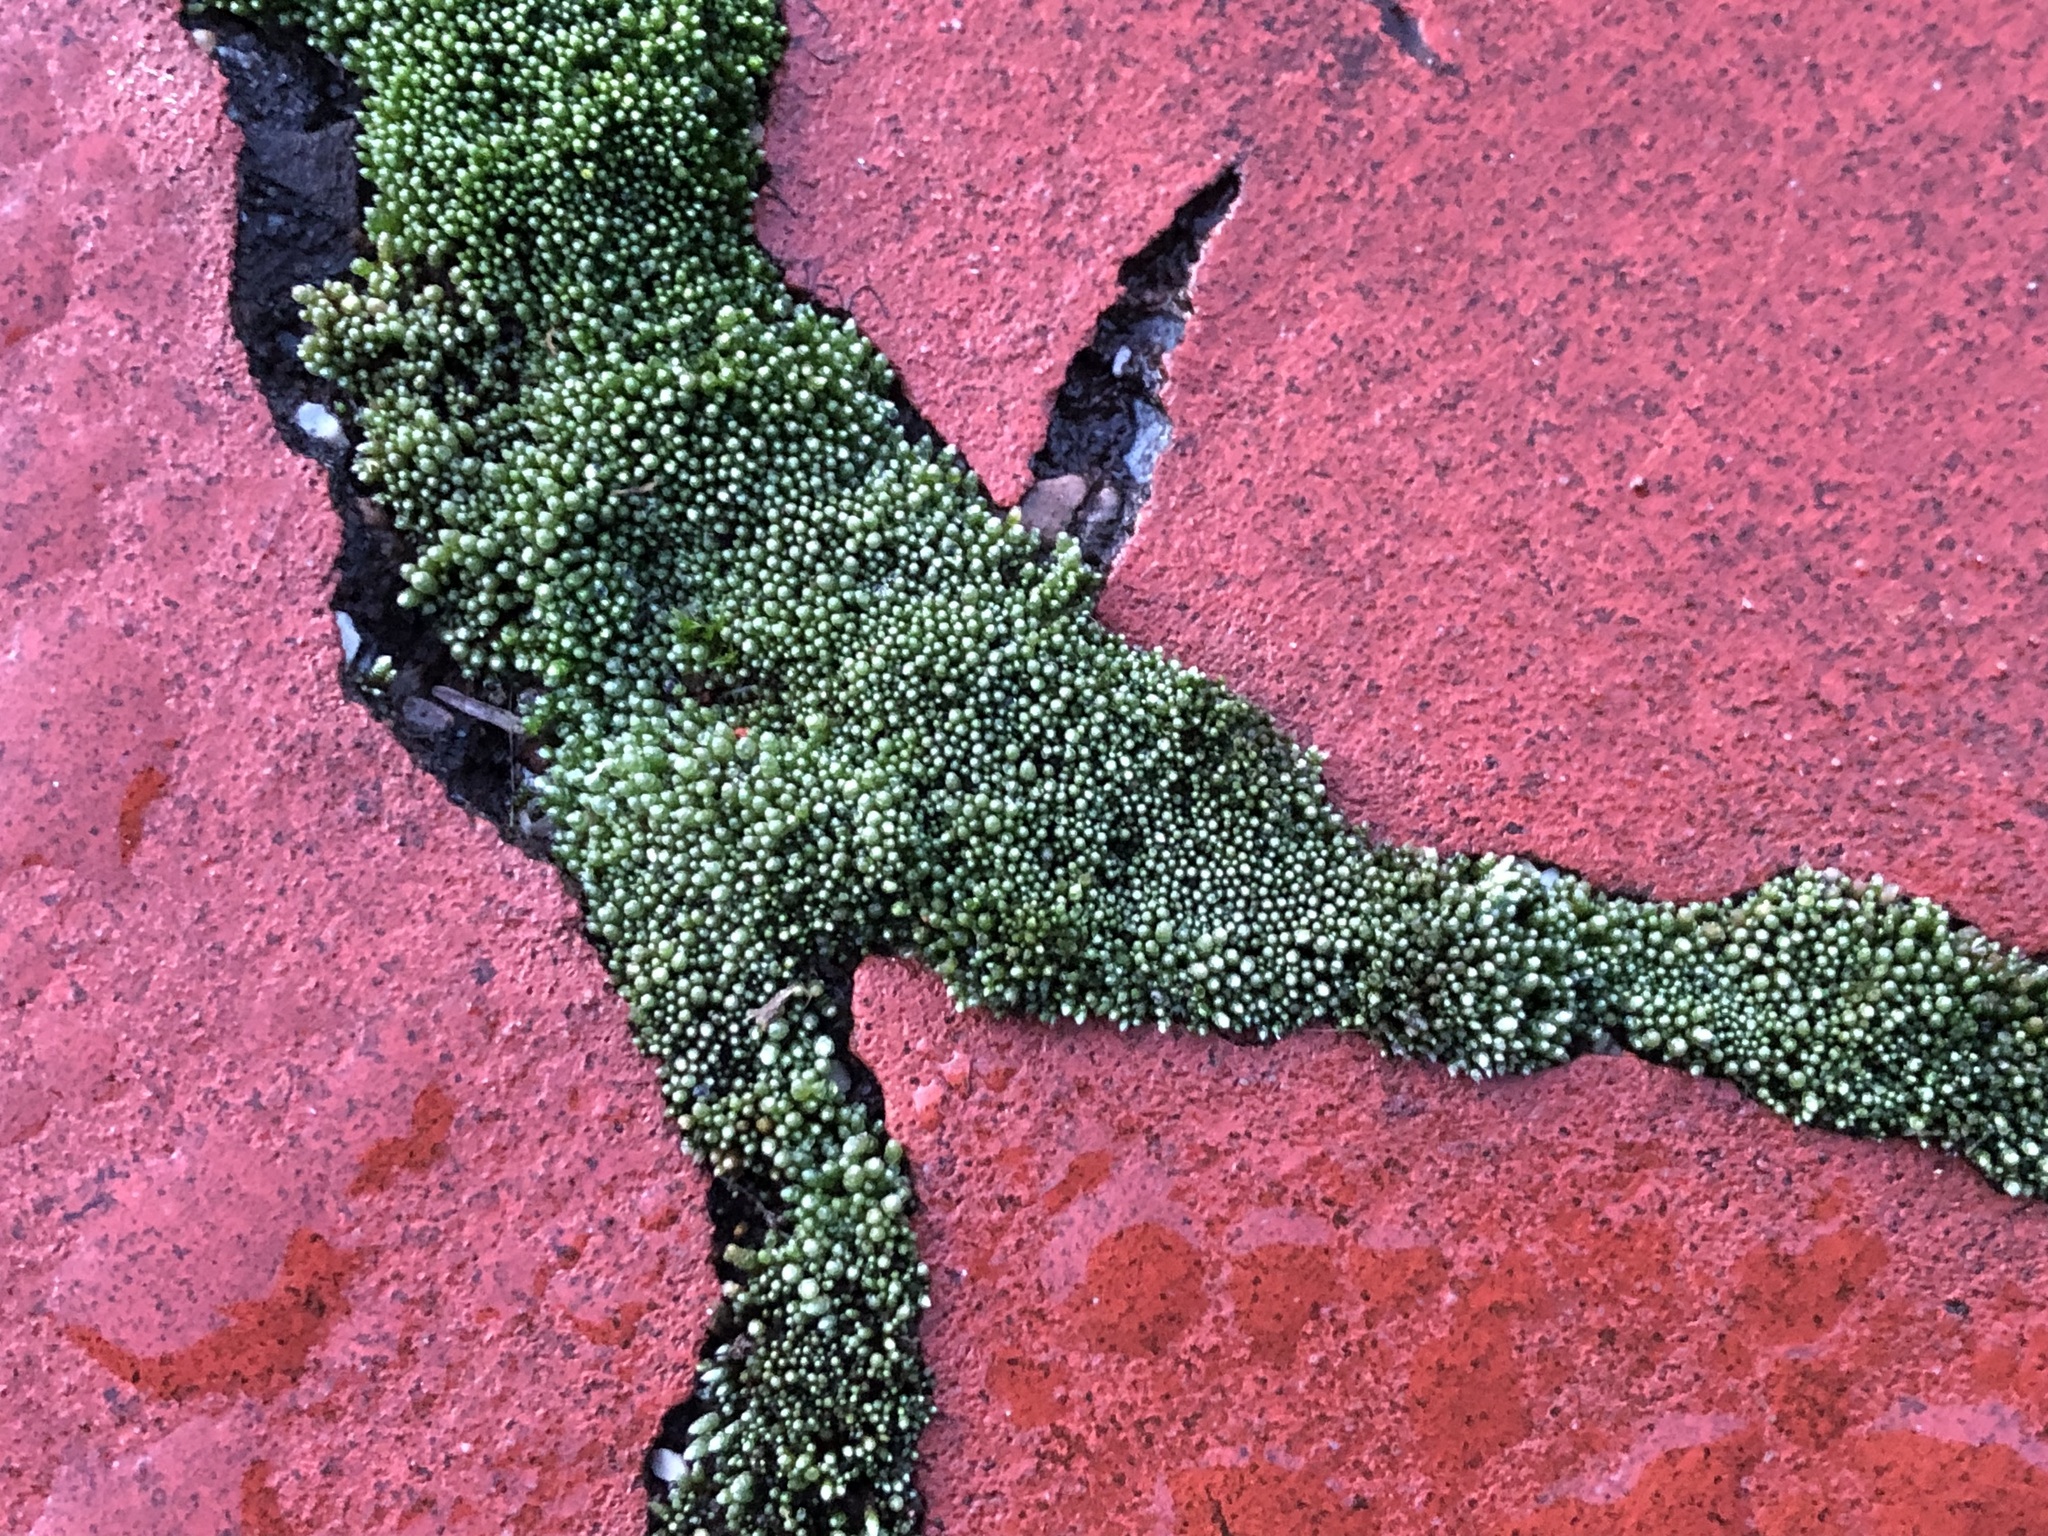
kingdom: Plantae
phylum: Bryophyta
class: Bryopsida
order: Bryales
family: Bryaceae
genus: Bryum
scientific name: Bryum argenteum
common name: Silver-moss
